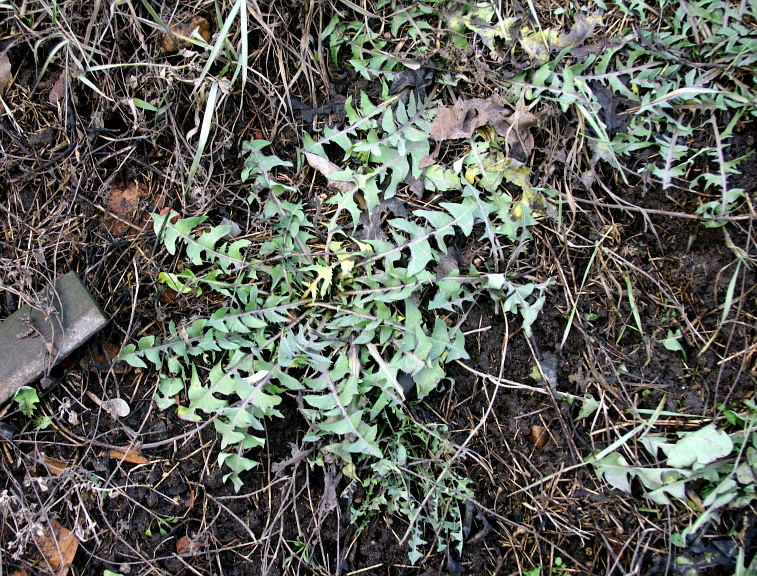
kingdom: Plantae
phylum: Tracheophyta
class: Magnoliopsida
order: Asterales
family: Asteraceae
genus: Taraxacum
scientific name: Taraxacum officinale
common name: Common dandelion
